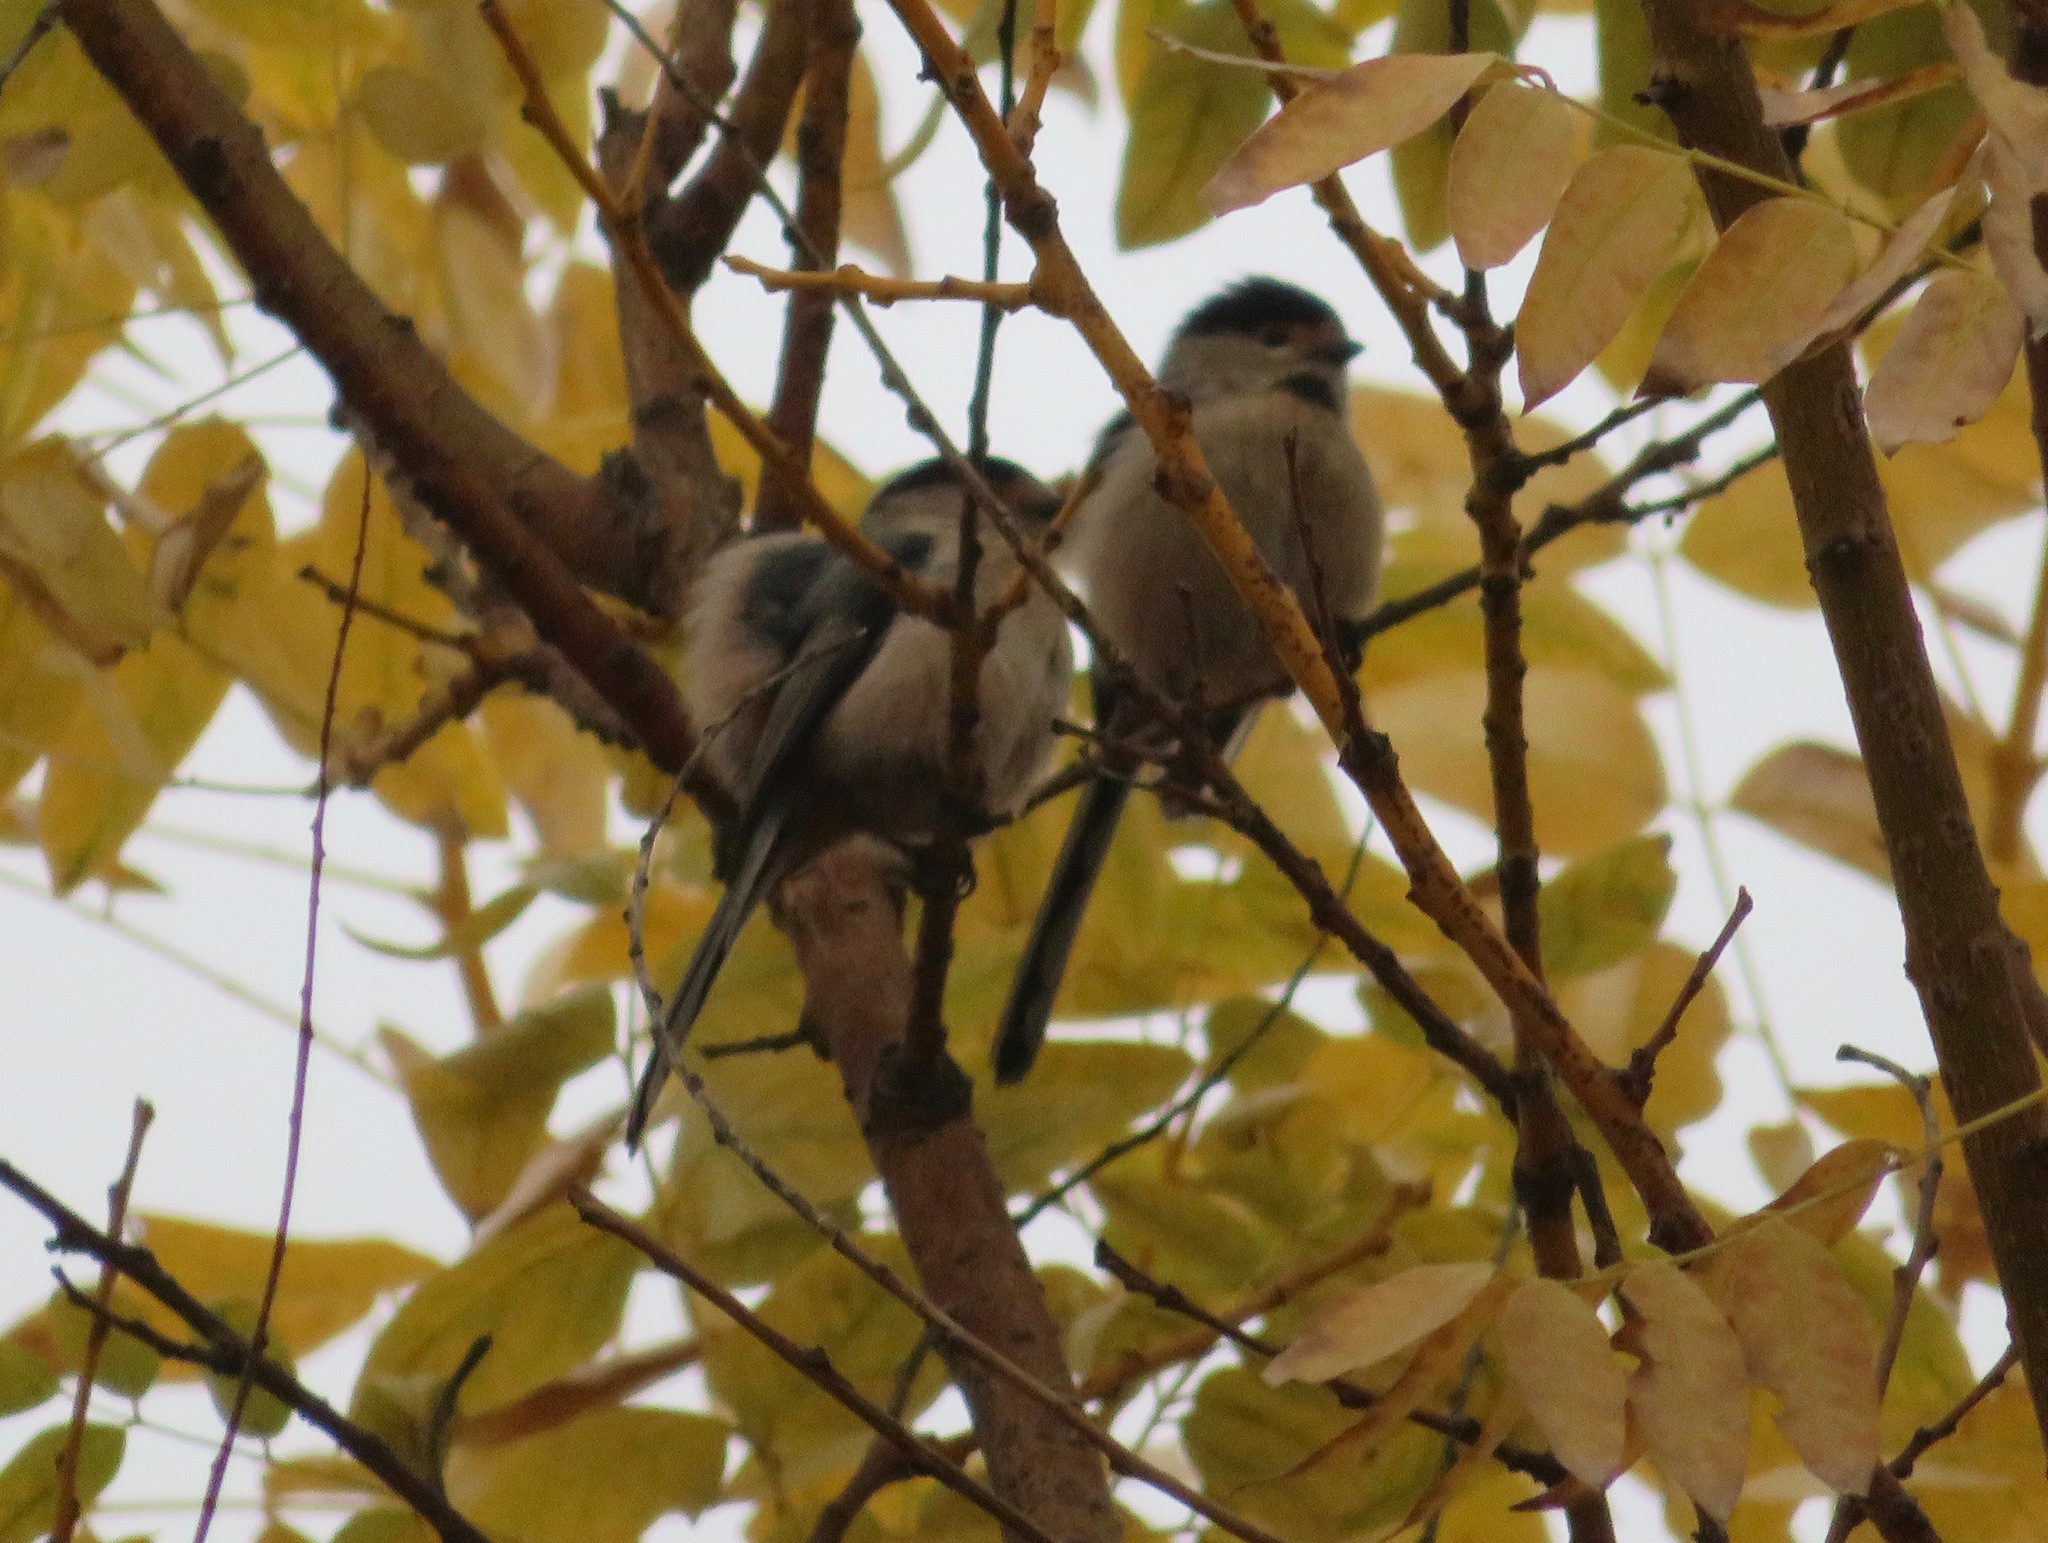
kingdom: Animalia
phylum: Chordata
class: Aves
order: Passeriformes
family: Aegithalidae
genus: Aegithalos
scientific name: Aegithalos glaucogularis
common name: Silver-throated bushtit
